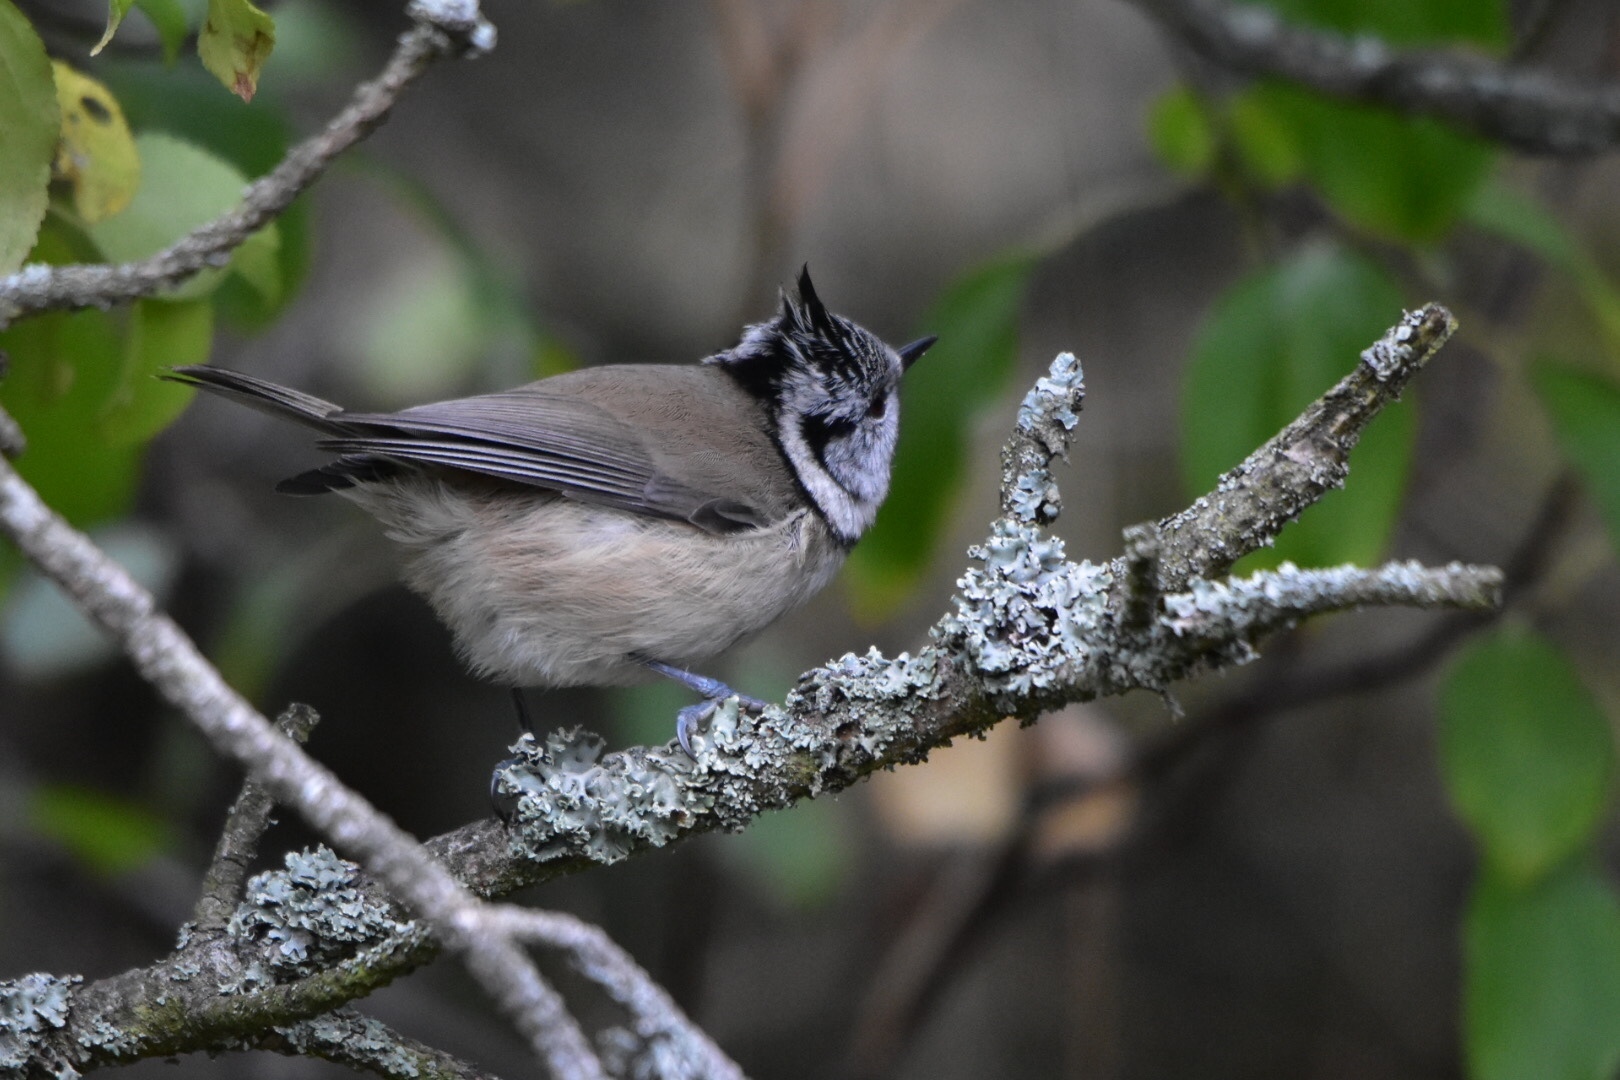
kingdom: Animalia
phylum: Chordata
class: Aves
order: Passeriformes
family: Paridae
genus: Lophophanes
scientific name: Lophophanes cristatus
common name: European crested tit
